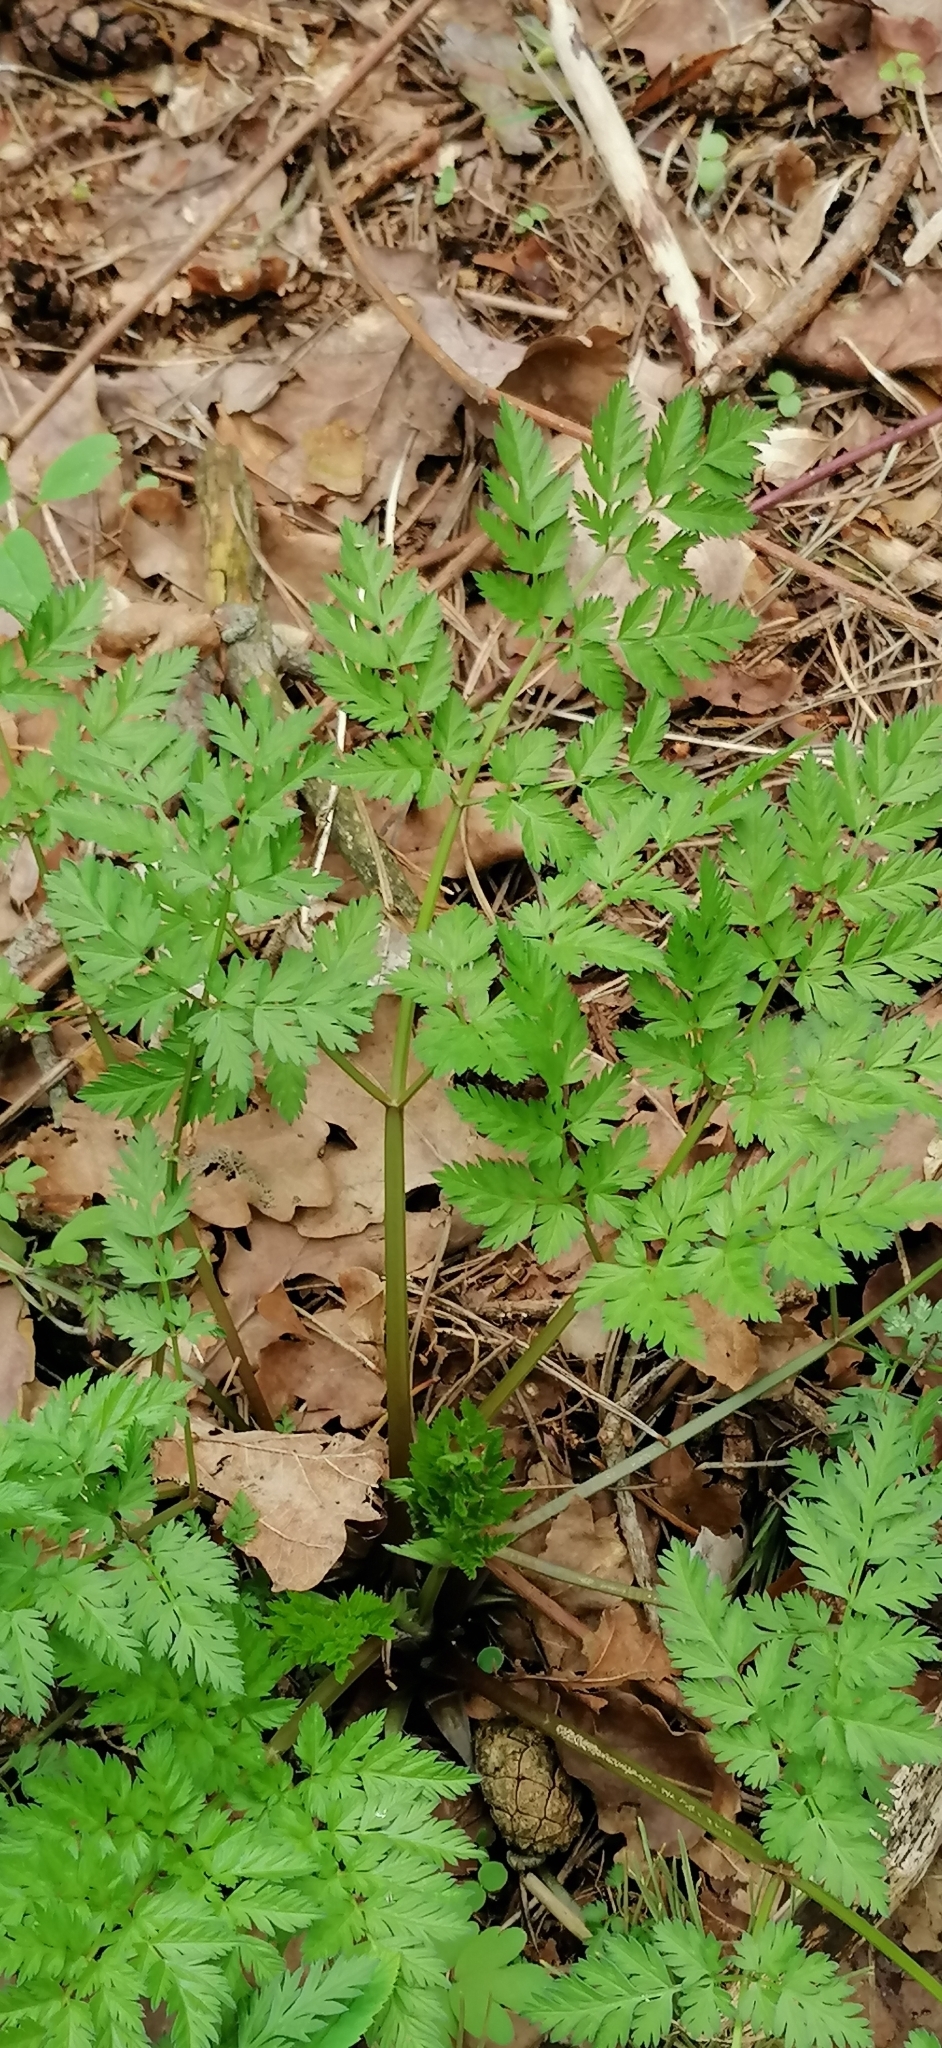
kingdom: Plantae
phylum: Tracheophyta
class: Magnoliopsida
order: Apiales
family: Apiaceae
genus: Anthriscus
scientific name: Anthriscus sylvestris
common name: Cow parsley
